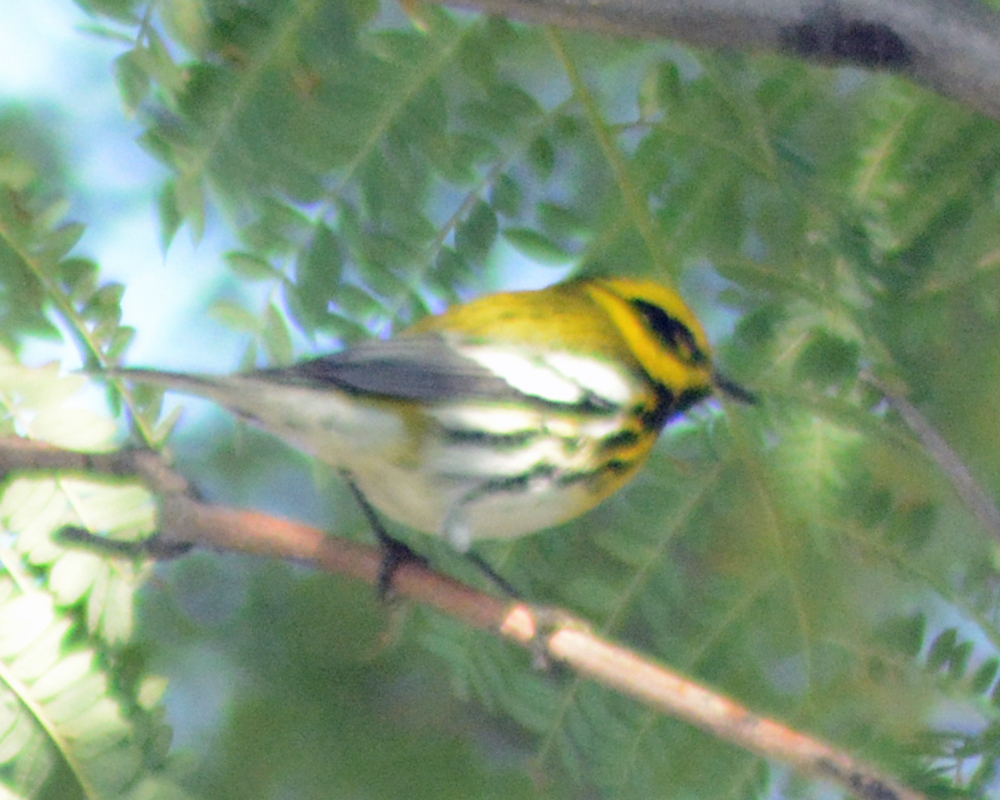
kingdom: Animalia
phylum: Chordata
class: Aves
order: Passeriformes
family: Parulidae
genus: Setophaga
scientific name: Setophaga townsendi
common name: Townsend's warbler
